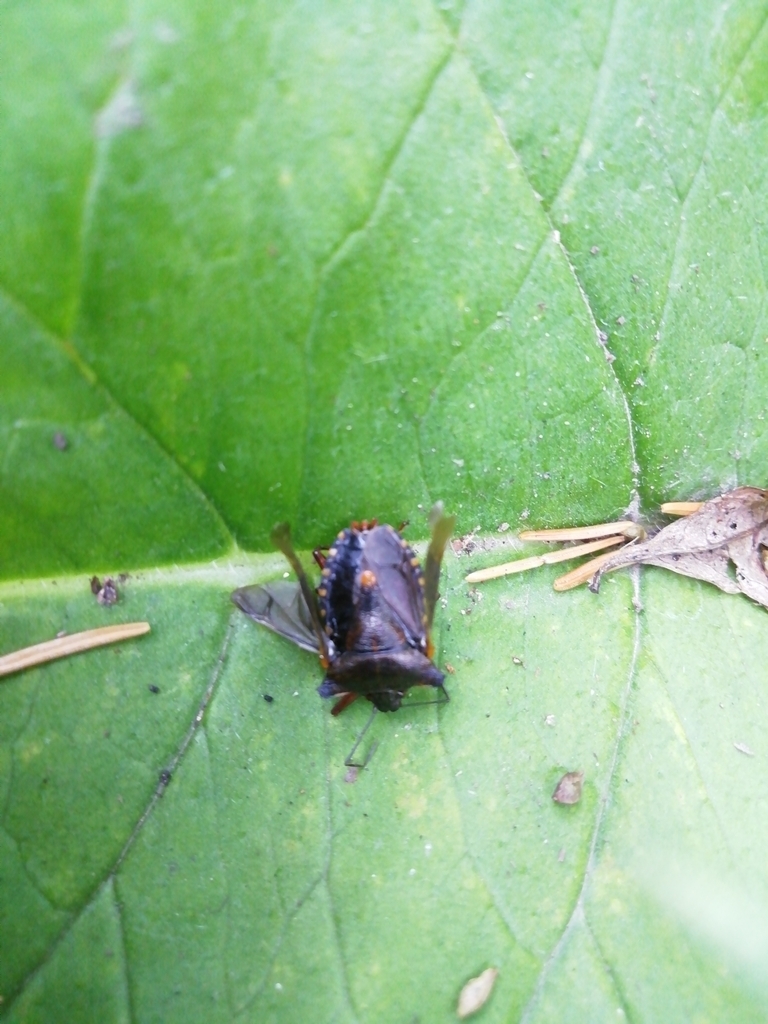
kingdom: Animalia
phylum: Arthropoda
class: Insecta
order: Hemiptera
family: Pentatomidae
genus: Pentatoma
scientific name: Pentatoma rufipes
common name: Forest bug
